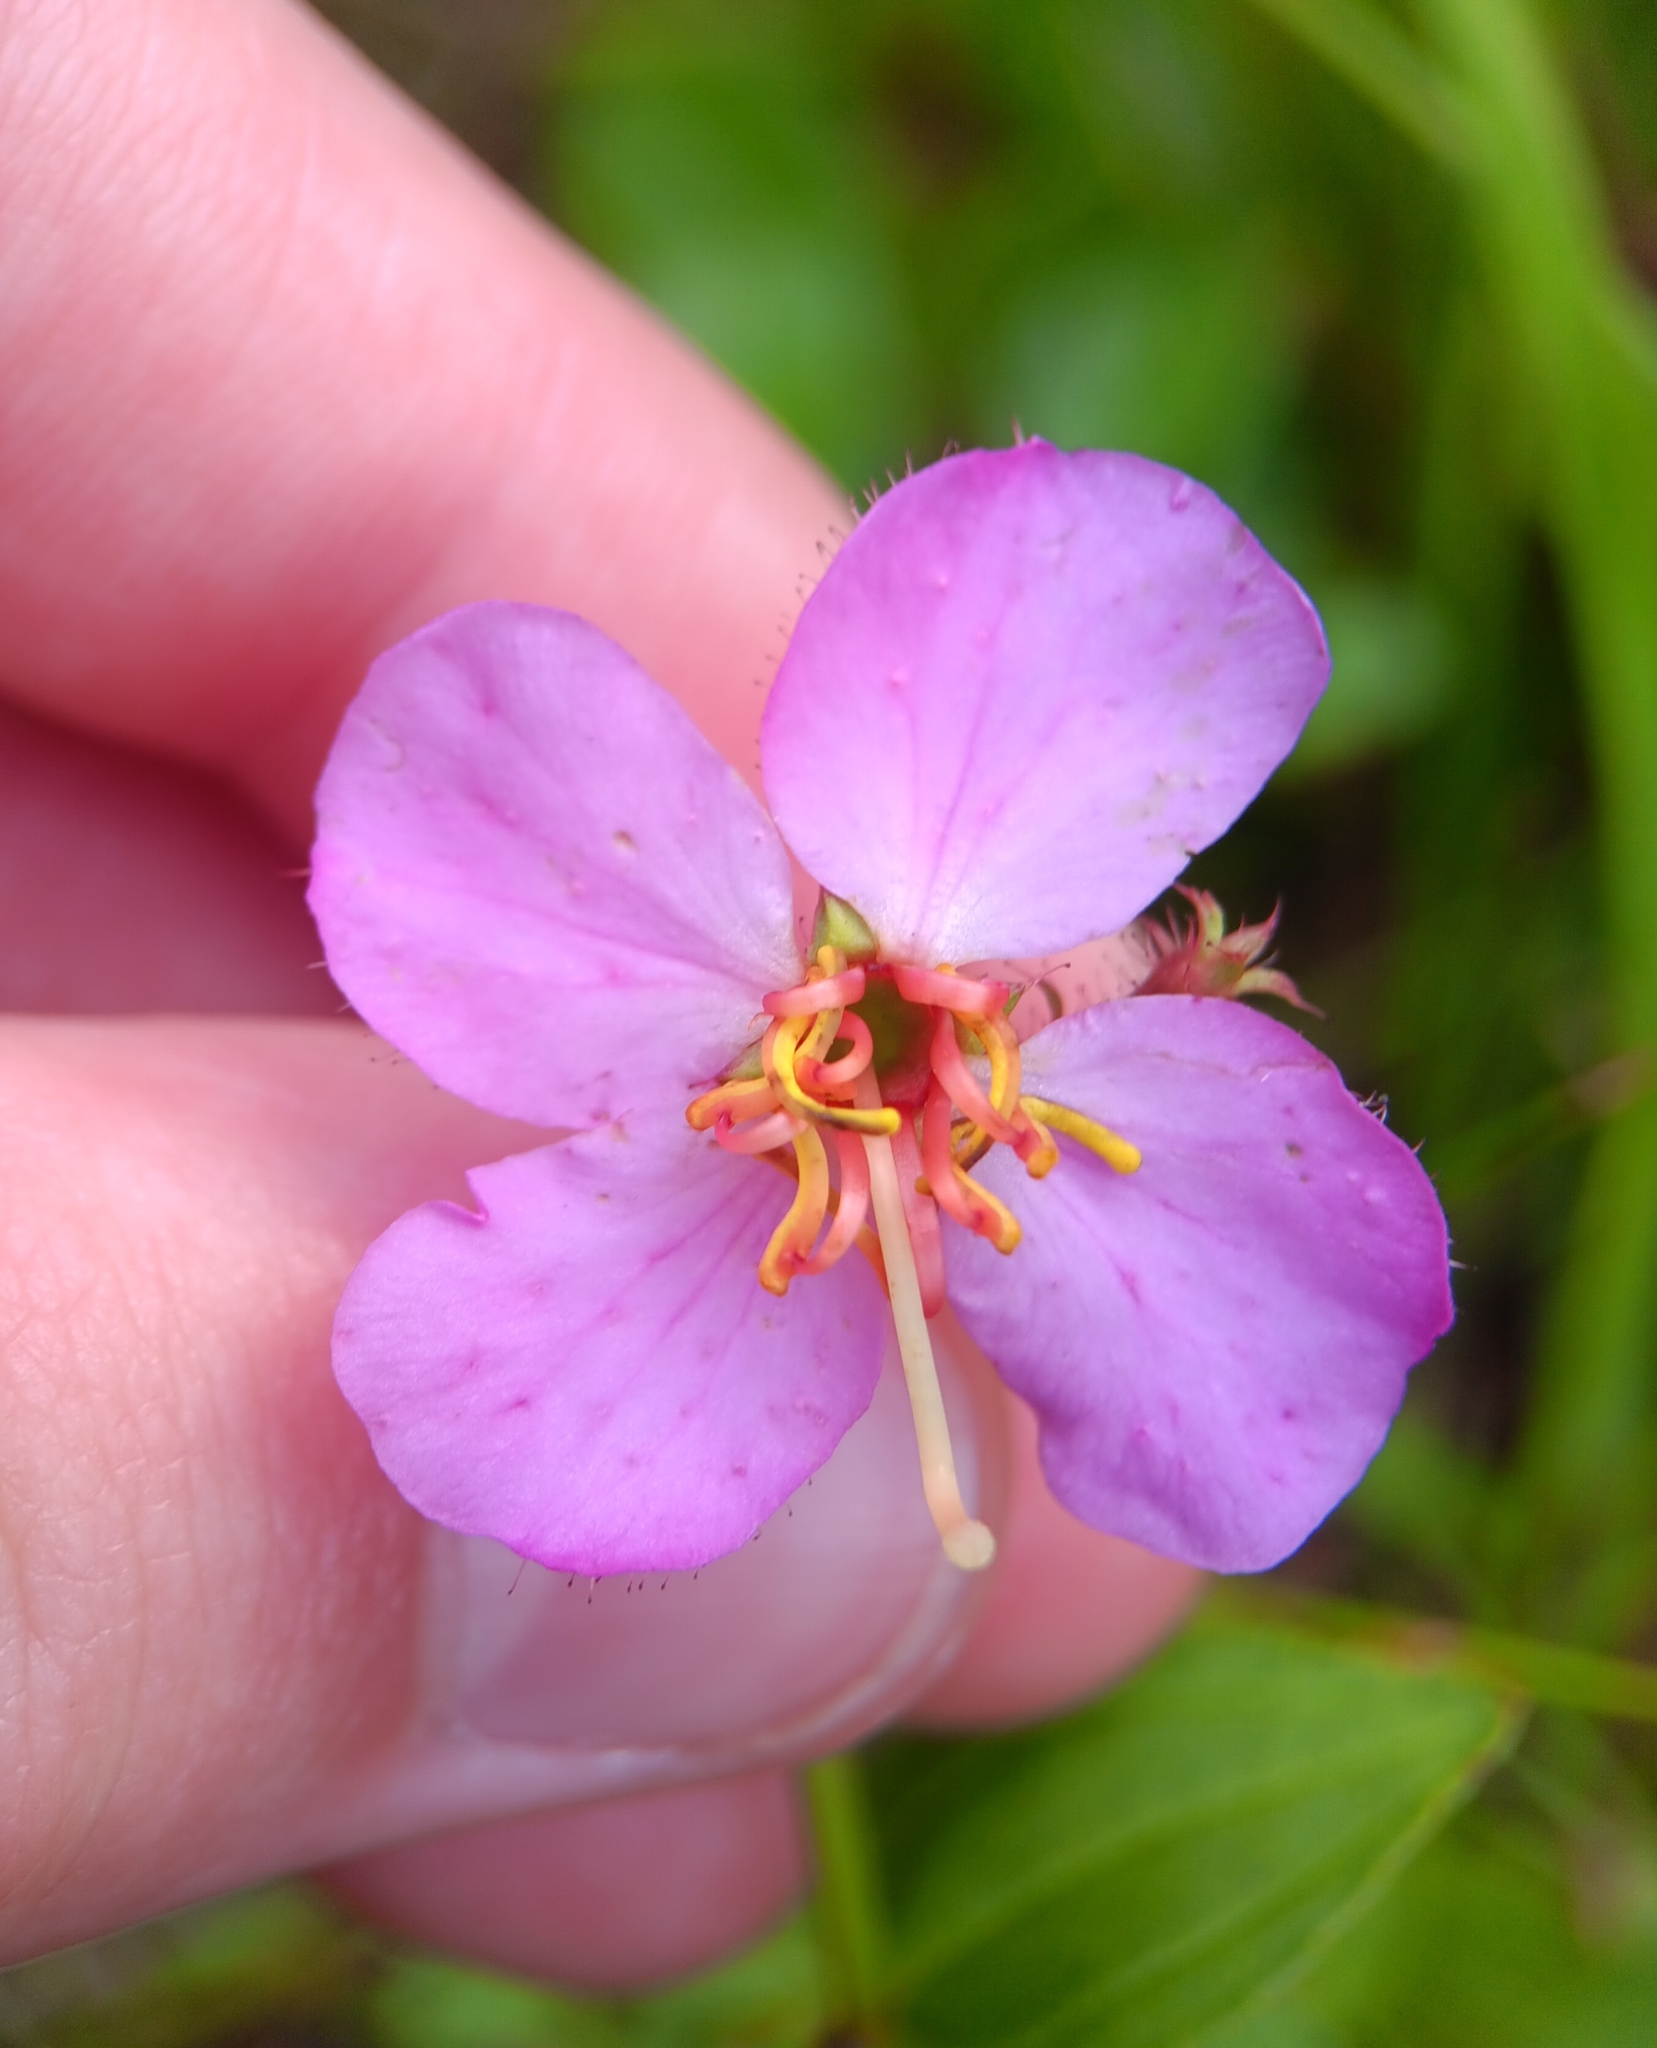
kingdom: Plantae
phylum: Tracheophyta
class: Magnoliopsida
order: Myrtales
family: Melastomataceae
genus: Rhexia
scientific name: Rhexia virginica
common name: Common meadow beauty
